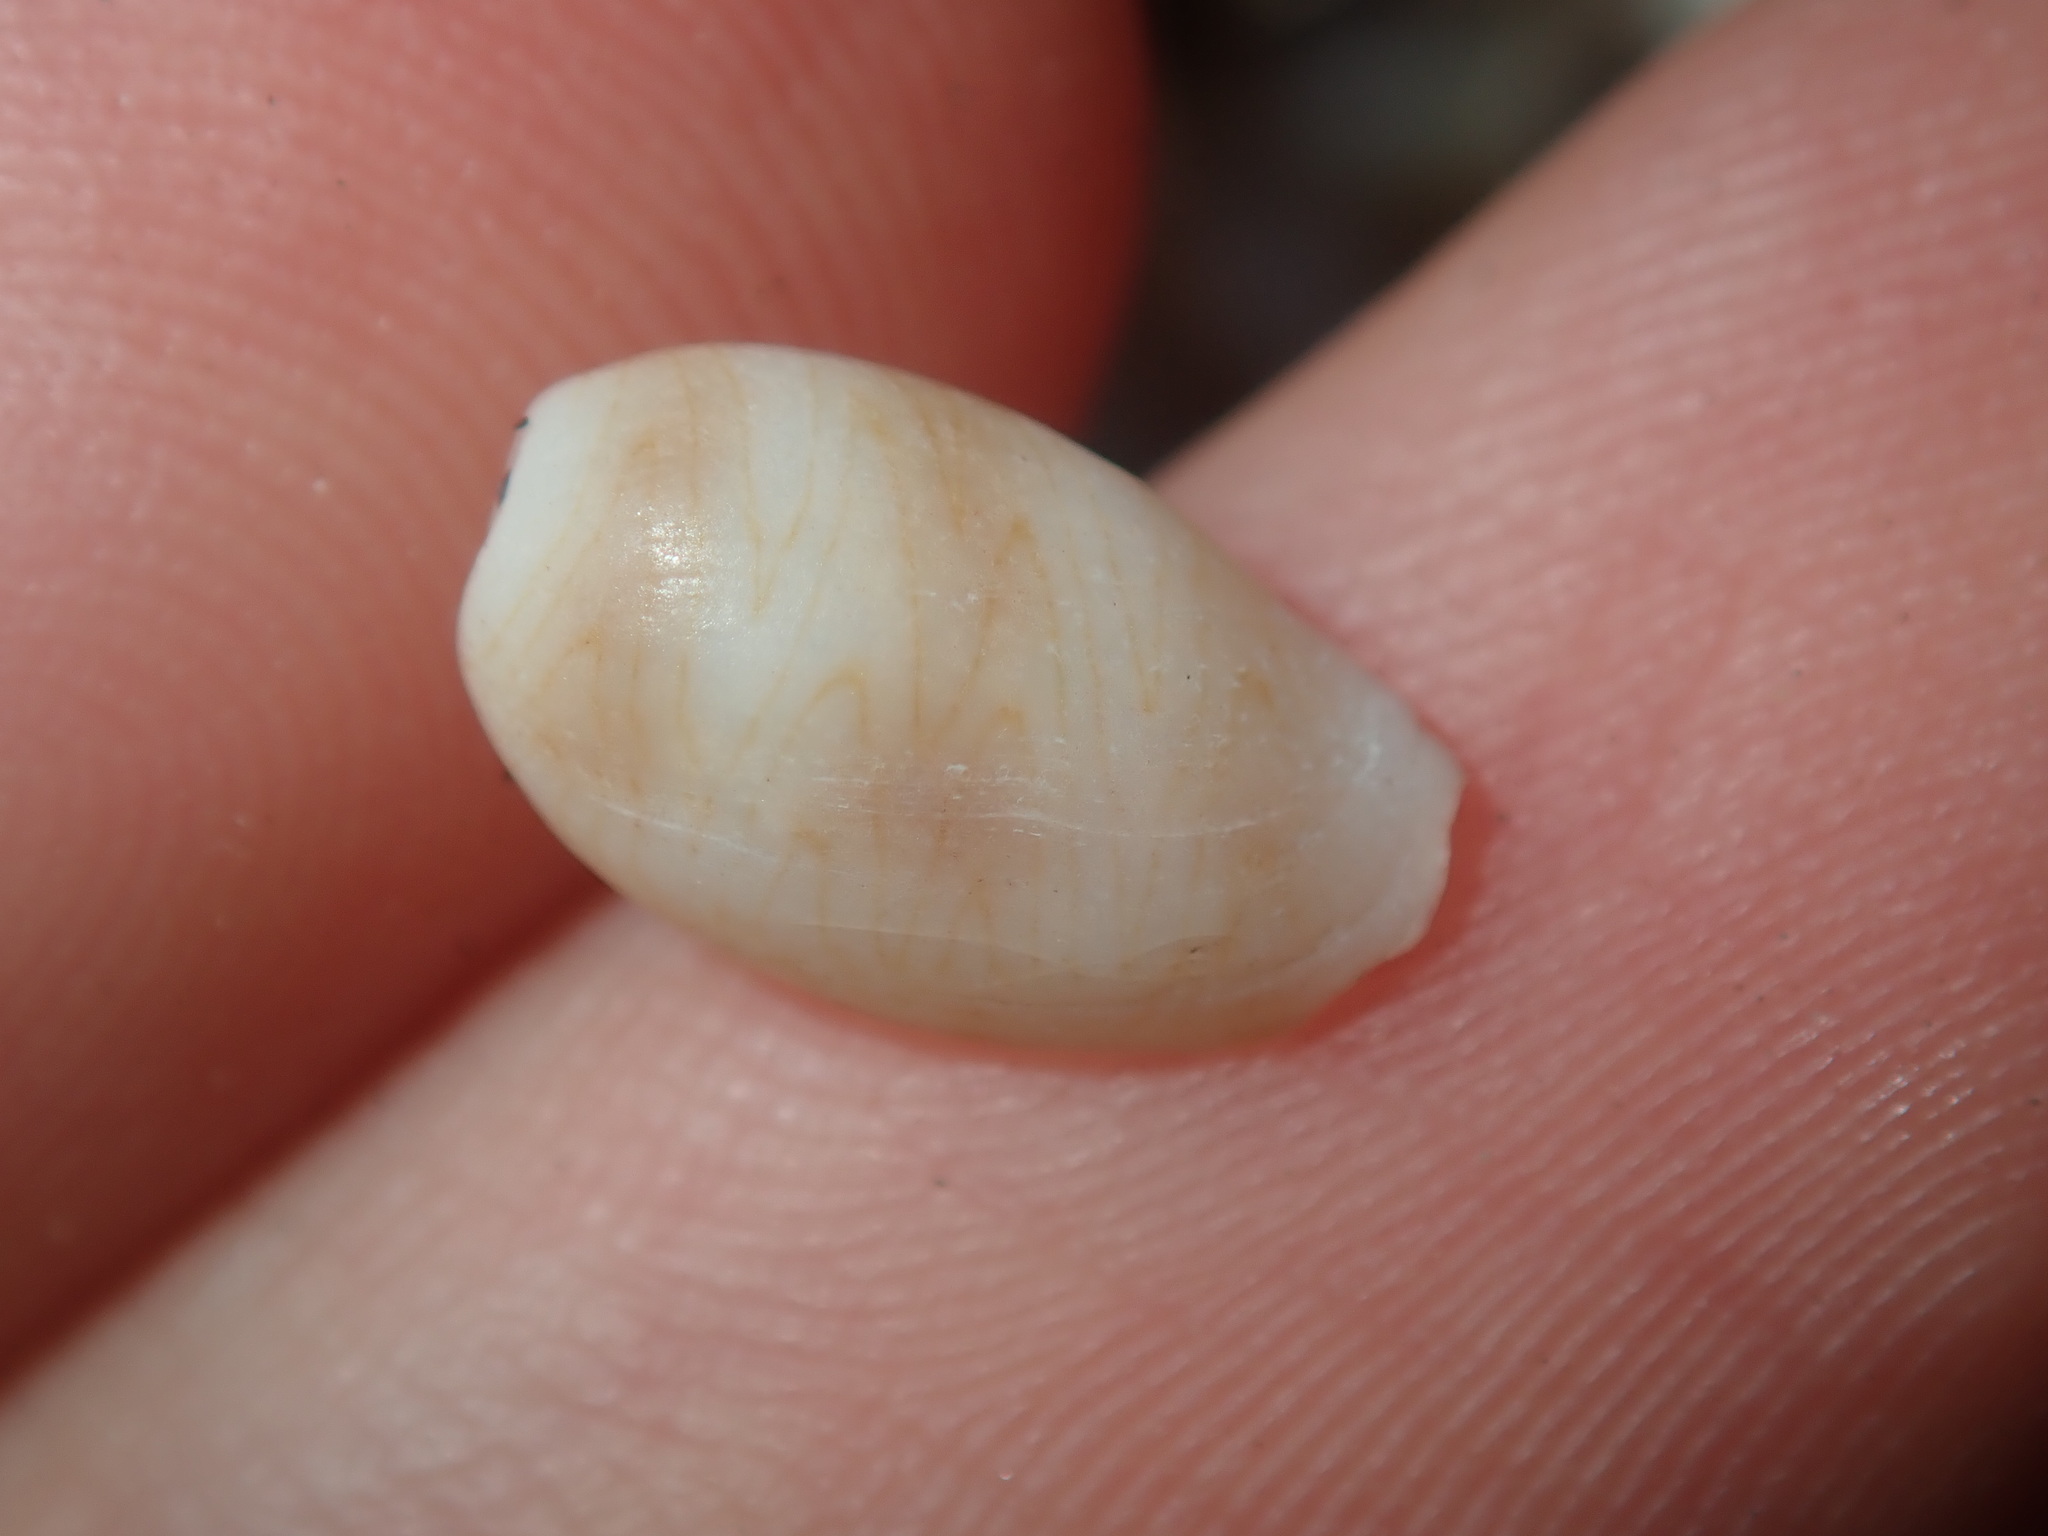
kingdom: Animalia
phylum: Mollusca
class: Gastropoda
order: Littorinimorpha
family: Cypraeidae
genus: Palmadusta
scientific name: Palmadusta clandestina
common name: Cowrie
